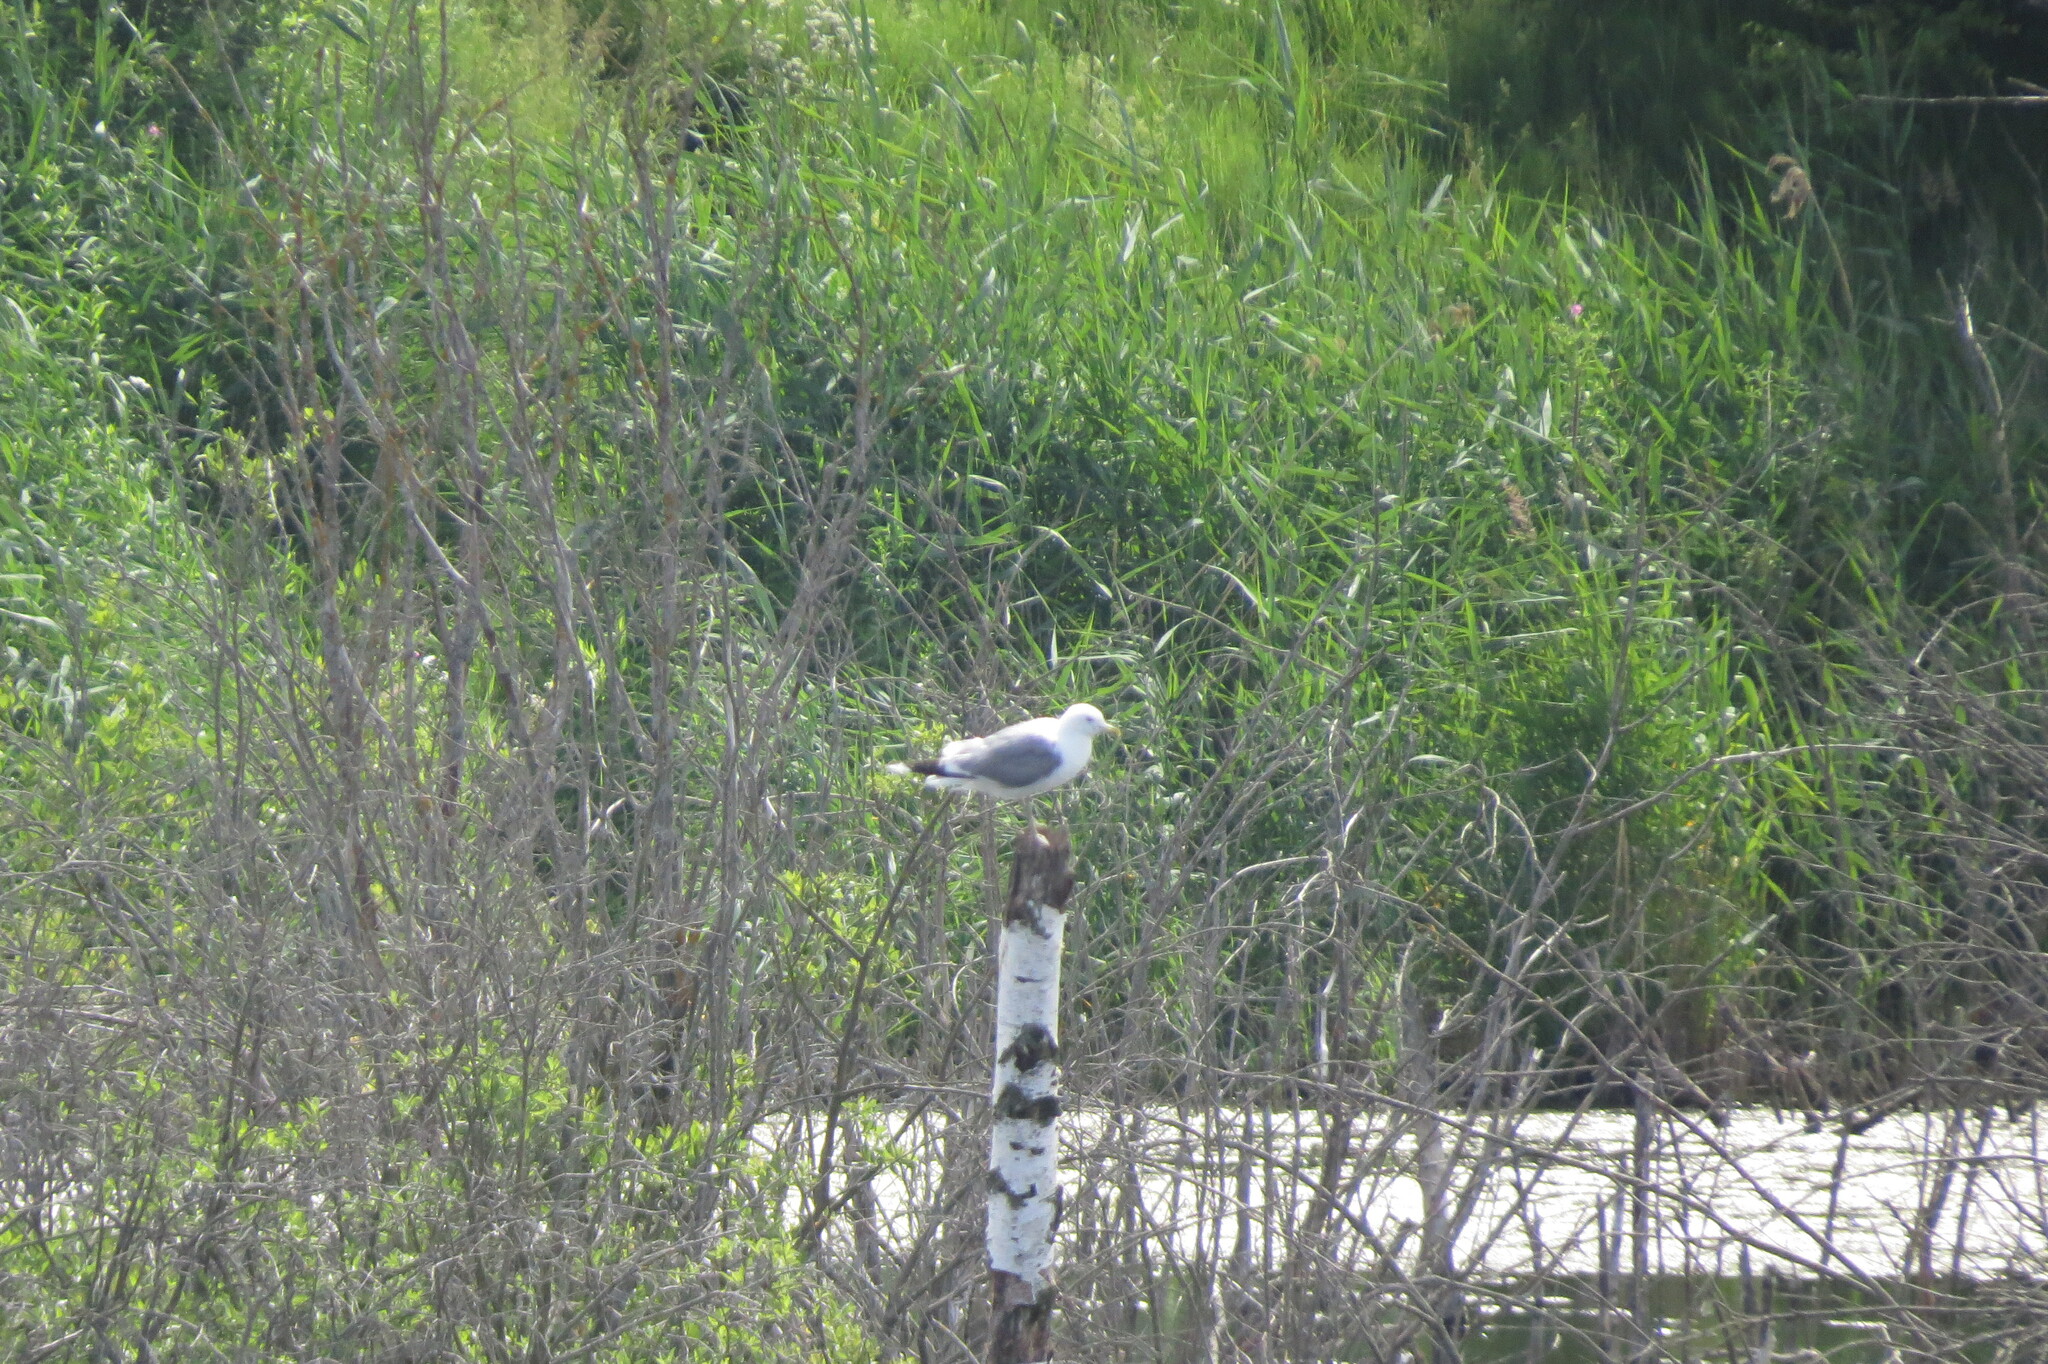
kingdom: Animalia
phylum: Chordata
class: Aves
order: Charadriiformes
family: Laridae
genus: Larus
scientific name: Larus canus
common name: Mew gull
